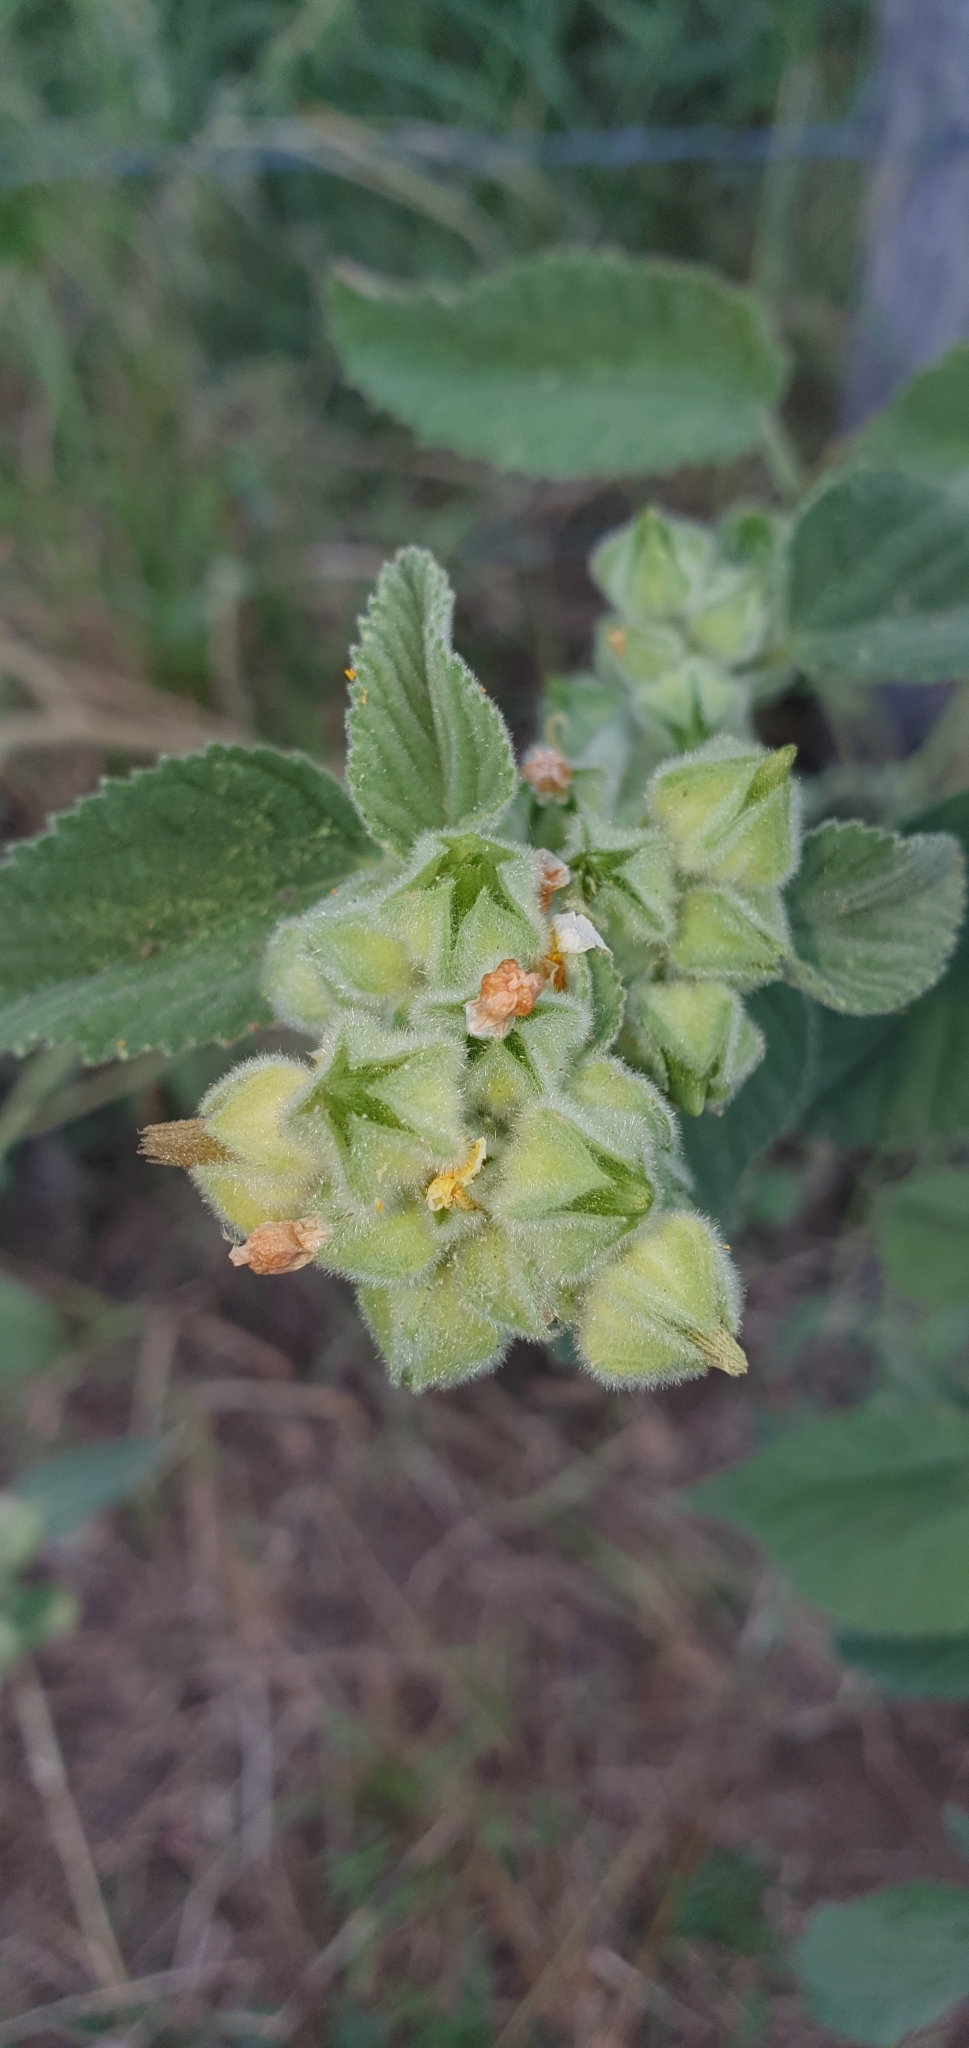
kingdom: Plantae
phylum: Tracheophyta
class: Magnoliopsida
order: Malvales
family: Malvaceae
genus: Sida
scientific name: Sida cordifolia
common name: Ilima
